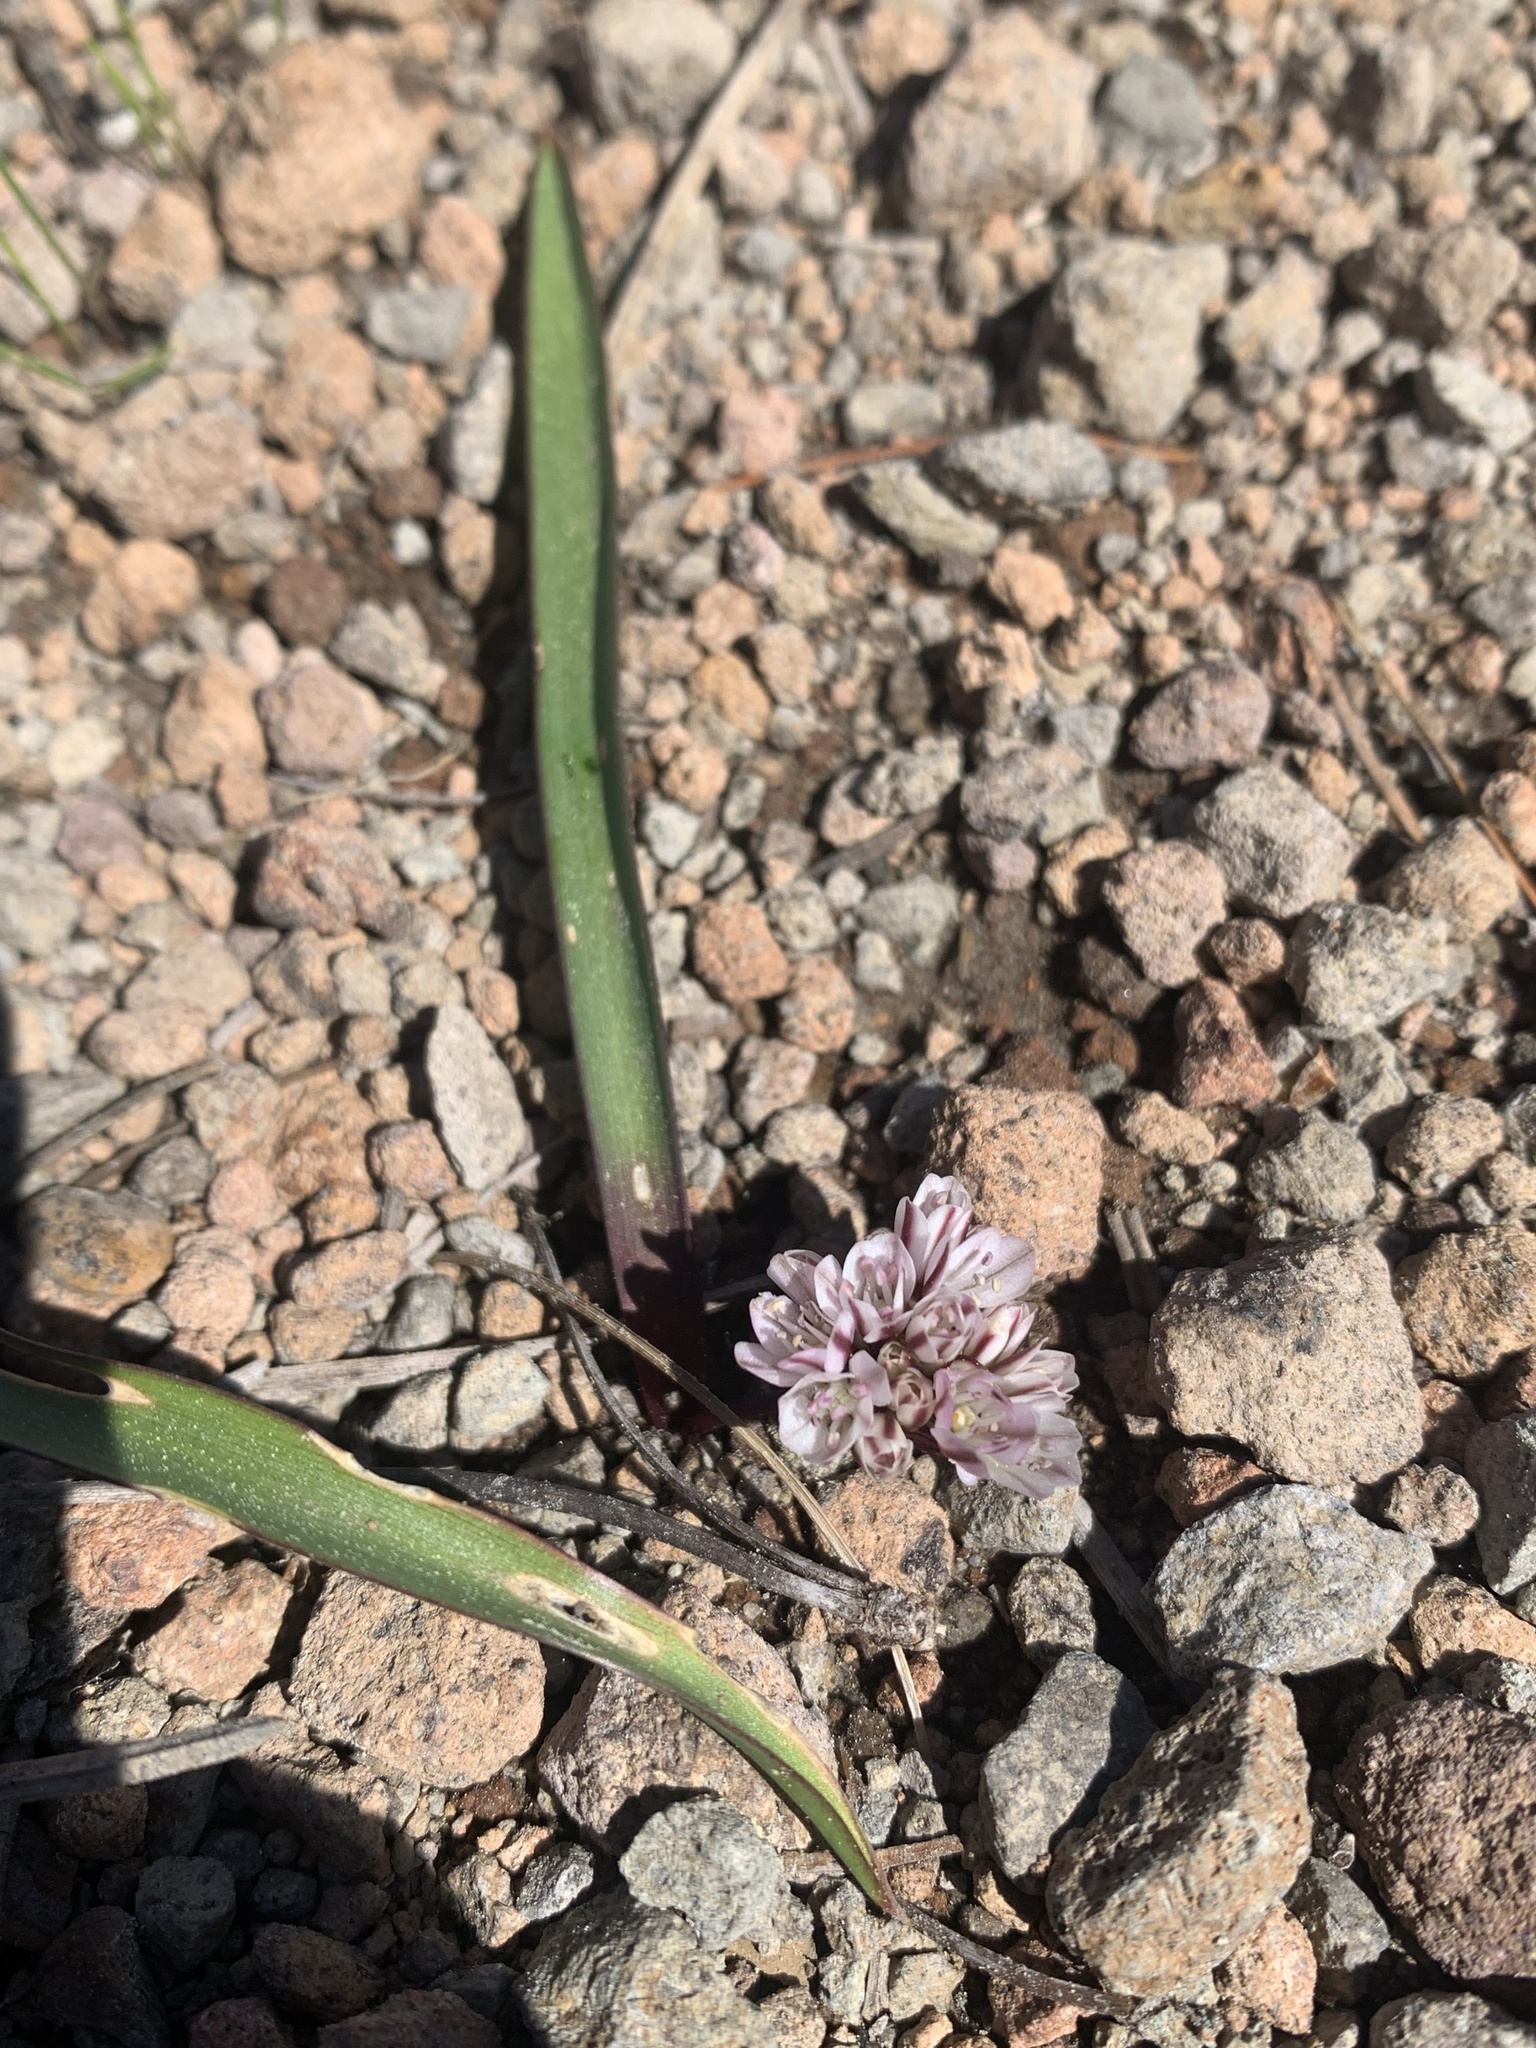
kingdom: Plantae
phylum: Tracheophyta
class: Liliopsida
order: Asparagales
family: Amaryllidaceae
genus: Allium
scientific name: Allium obtusum
